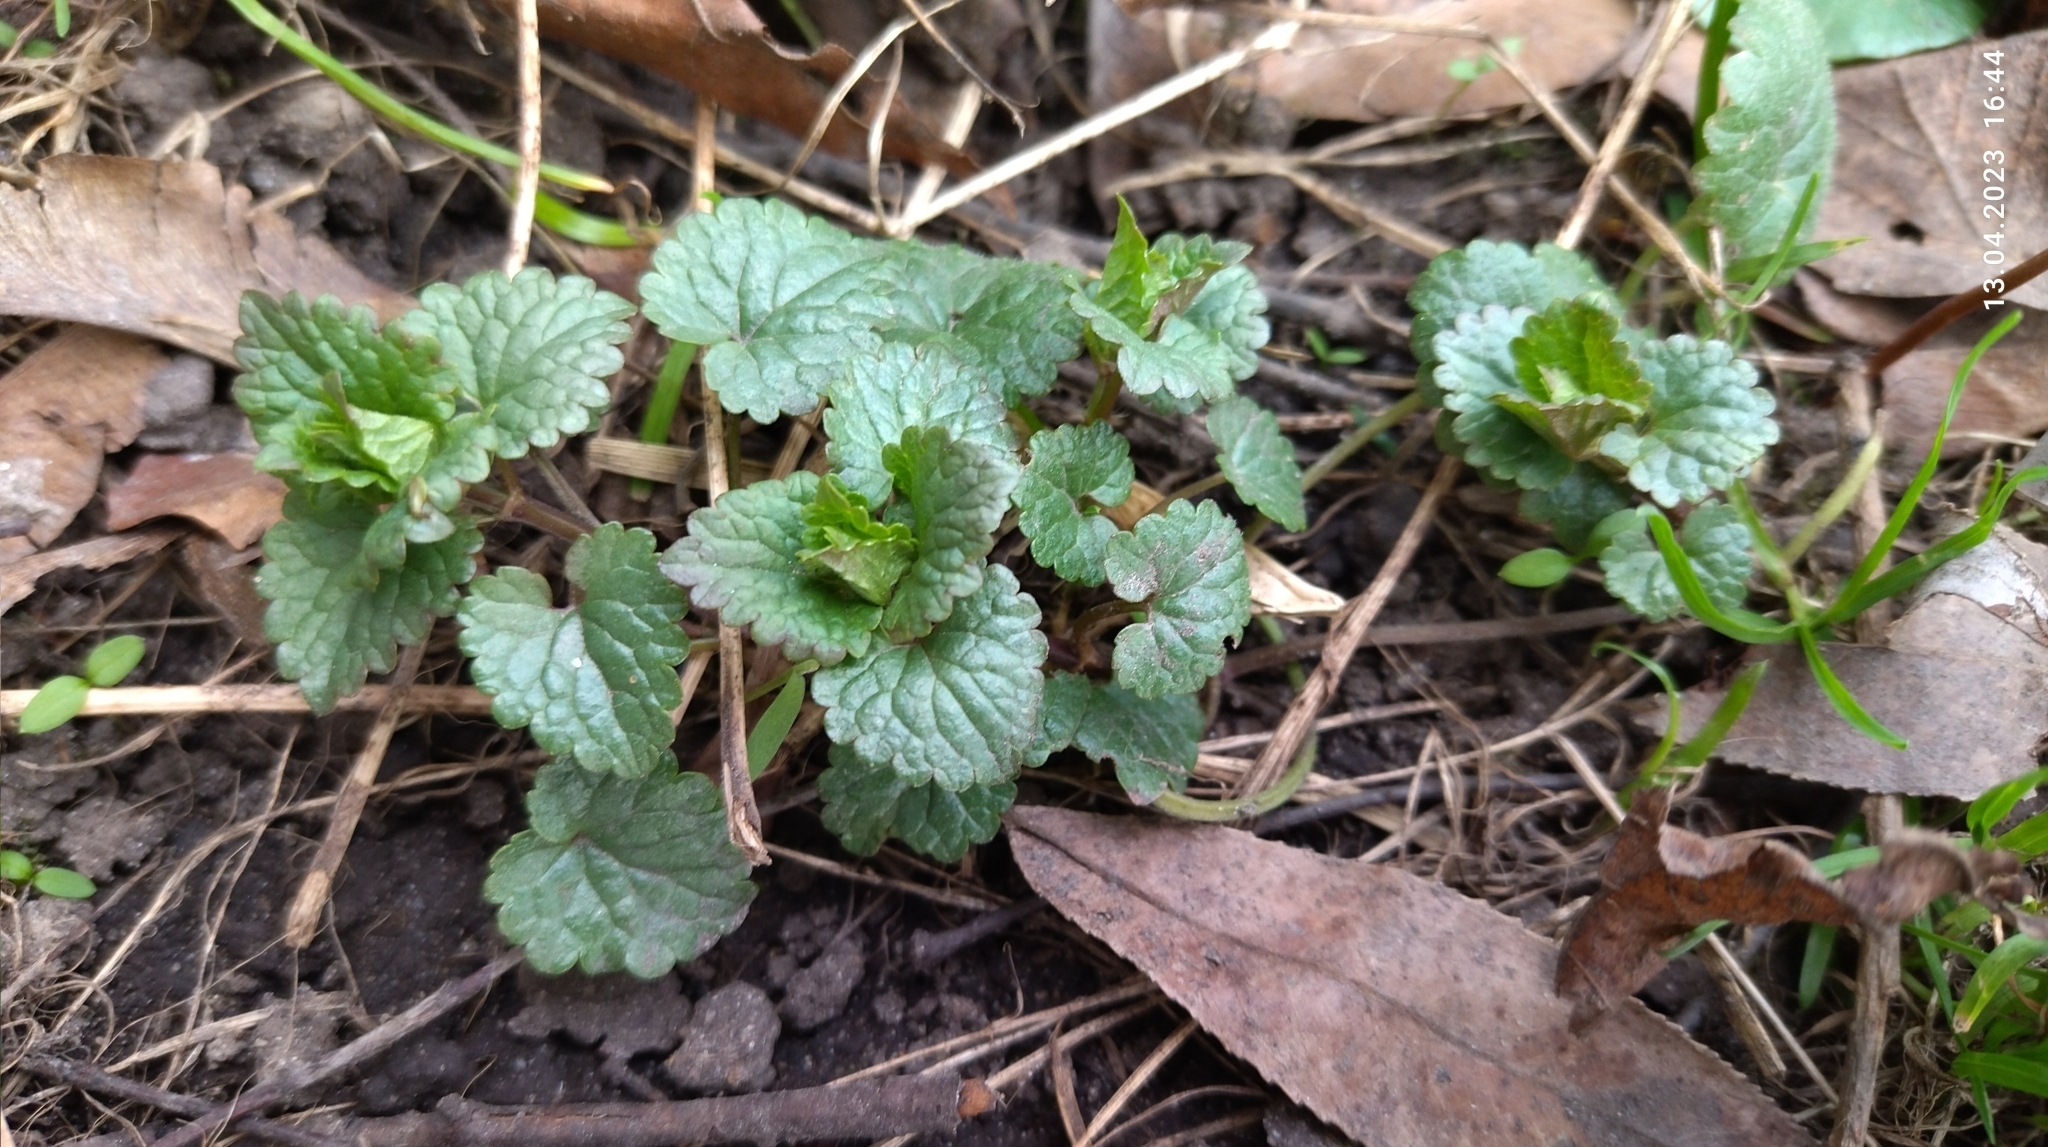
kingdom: Plantae
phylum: Tracheophyta
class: Magnoliopsida
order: Lamiales
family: Lamiaceae
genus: Glechoma
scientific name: Glechoma hederacea
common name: Ground ivy
